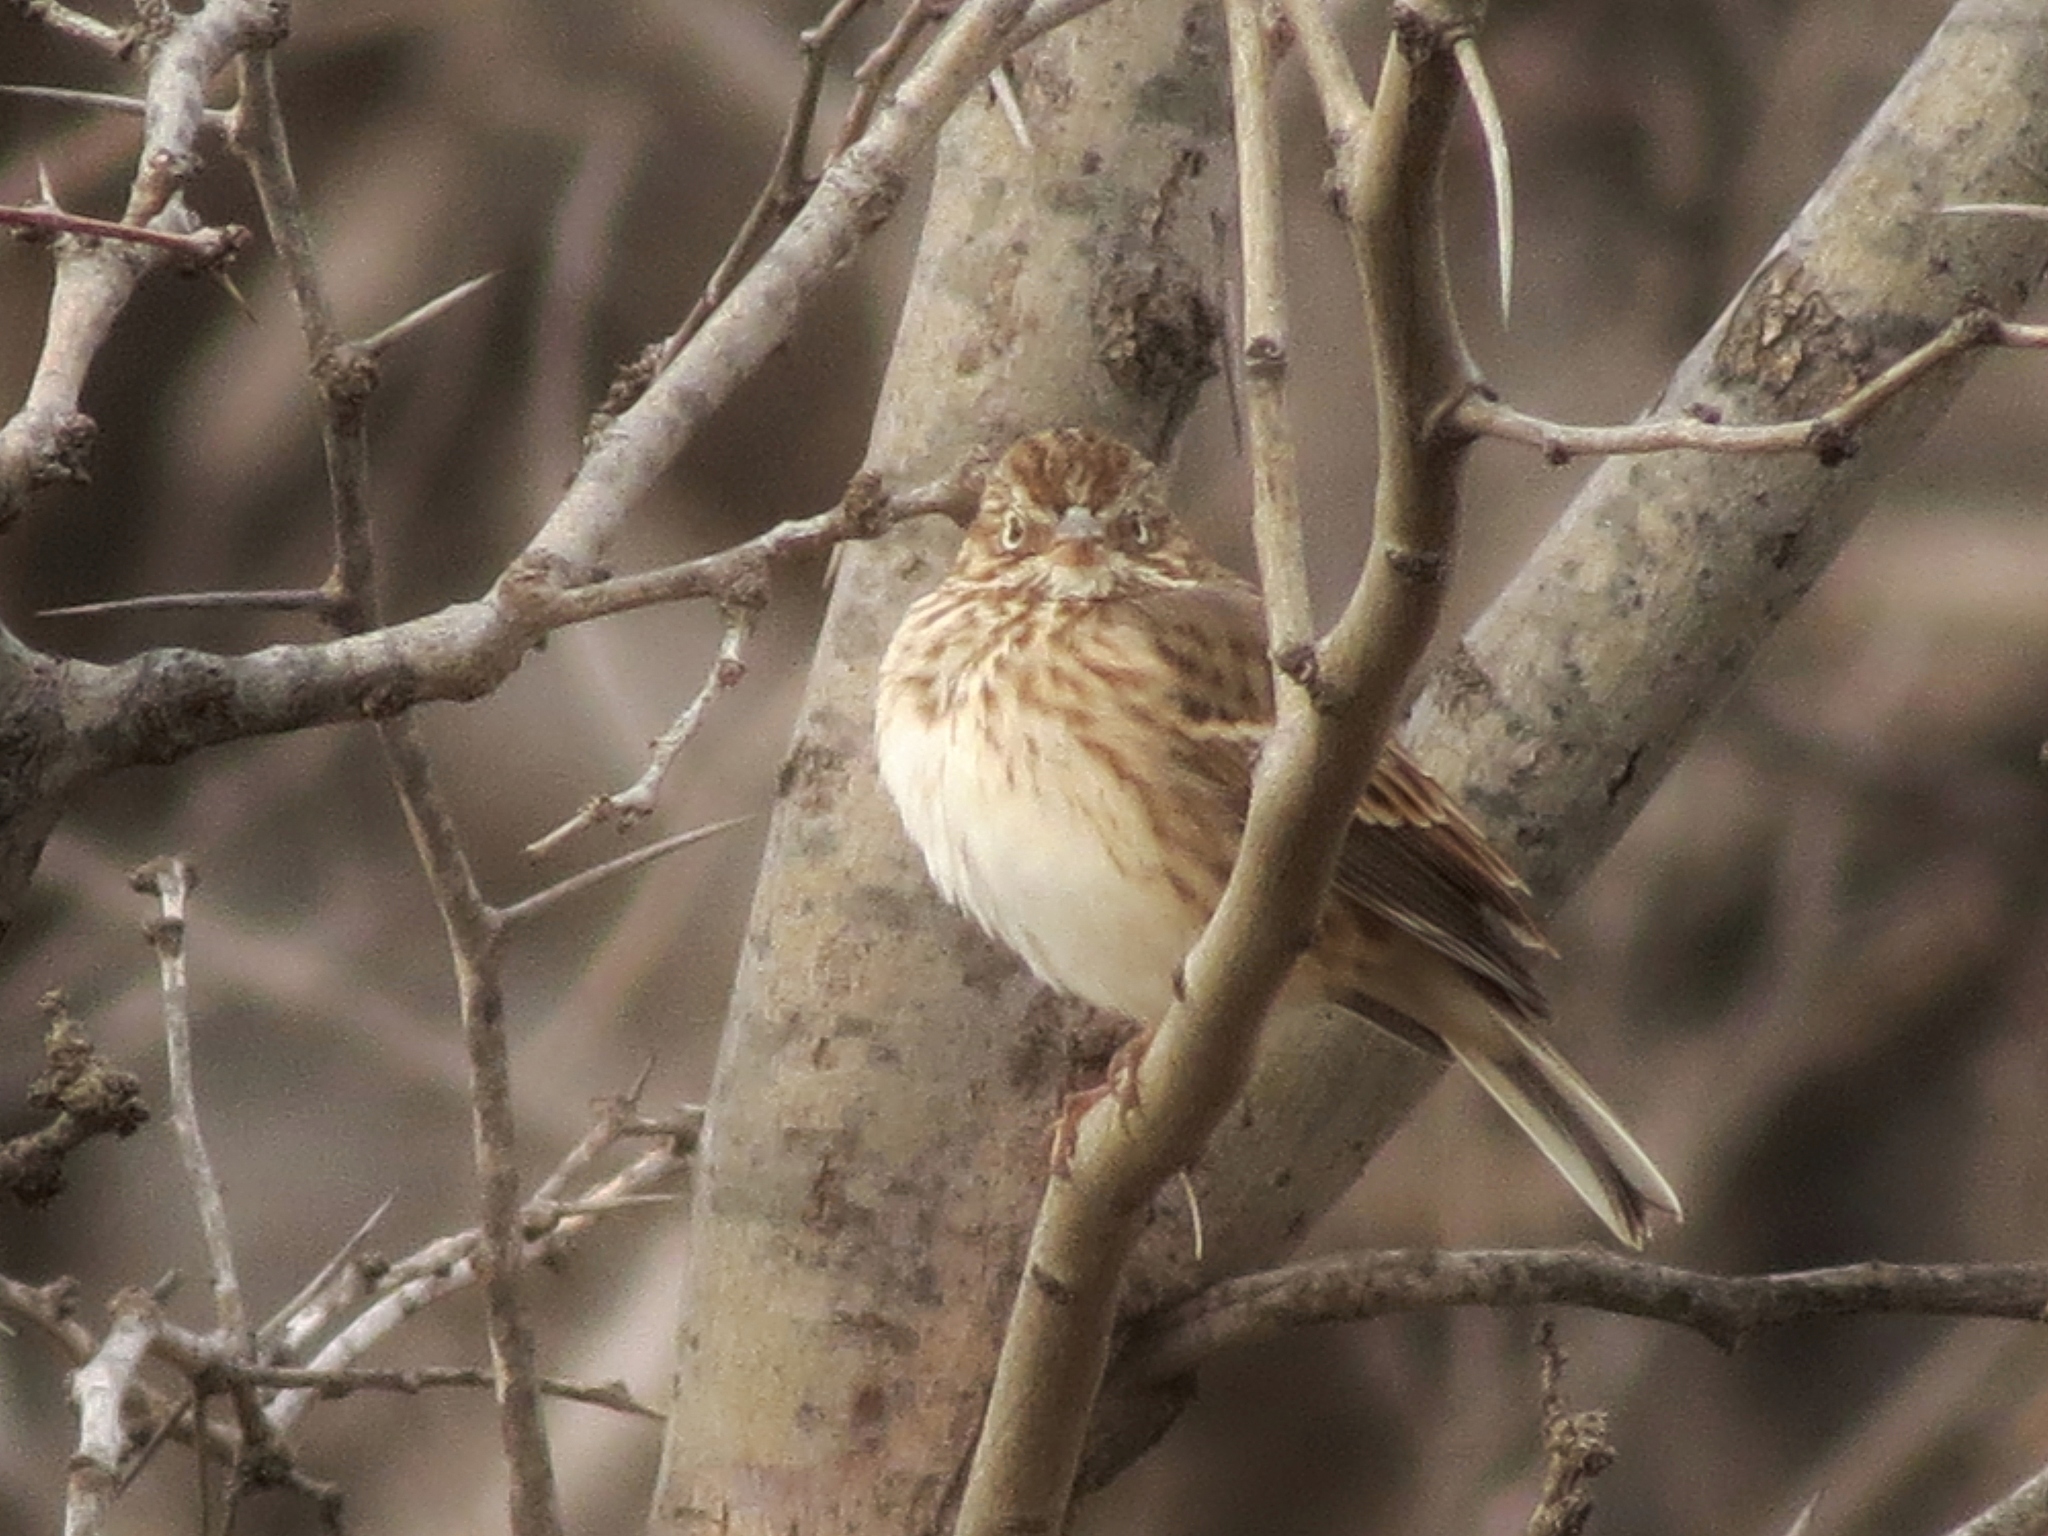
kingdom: Animalia
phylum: Chordata
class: Aves
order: Passeriformes
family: Passerellidae
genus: Pooecetes
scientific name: Pooecetes gramineus
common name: Vesper sparrow
